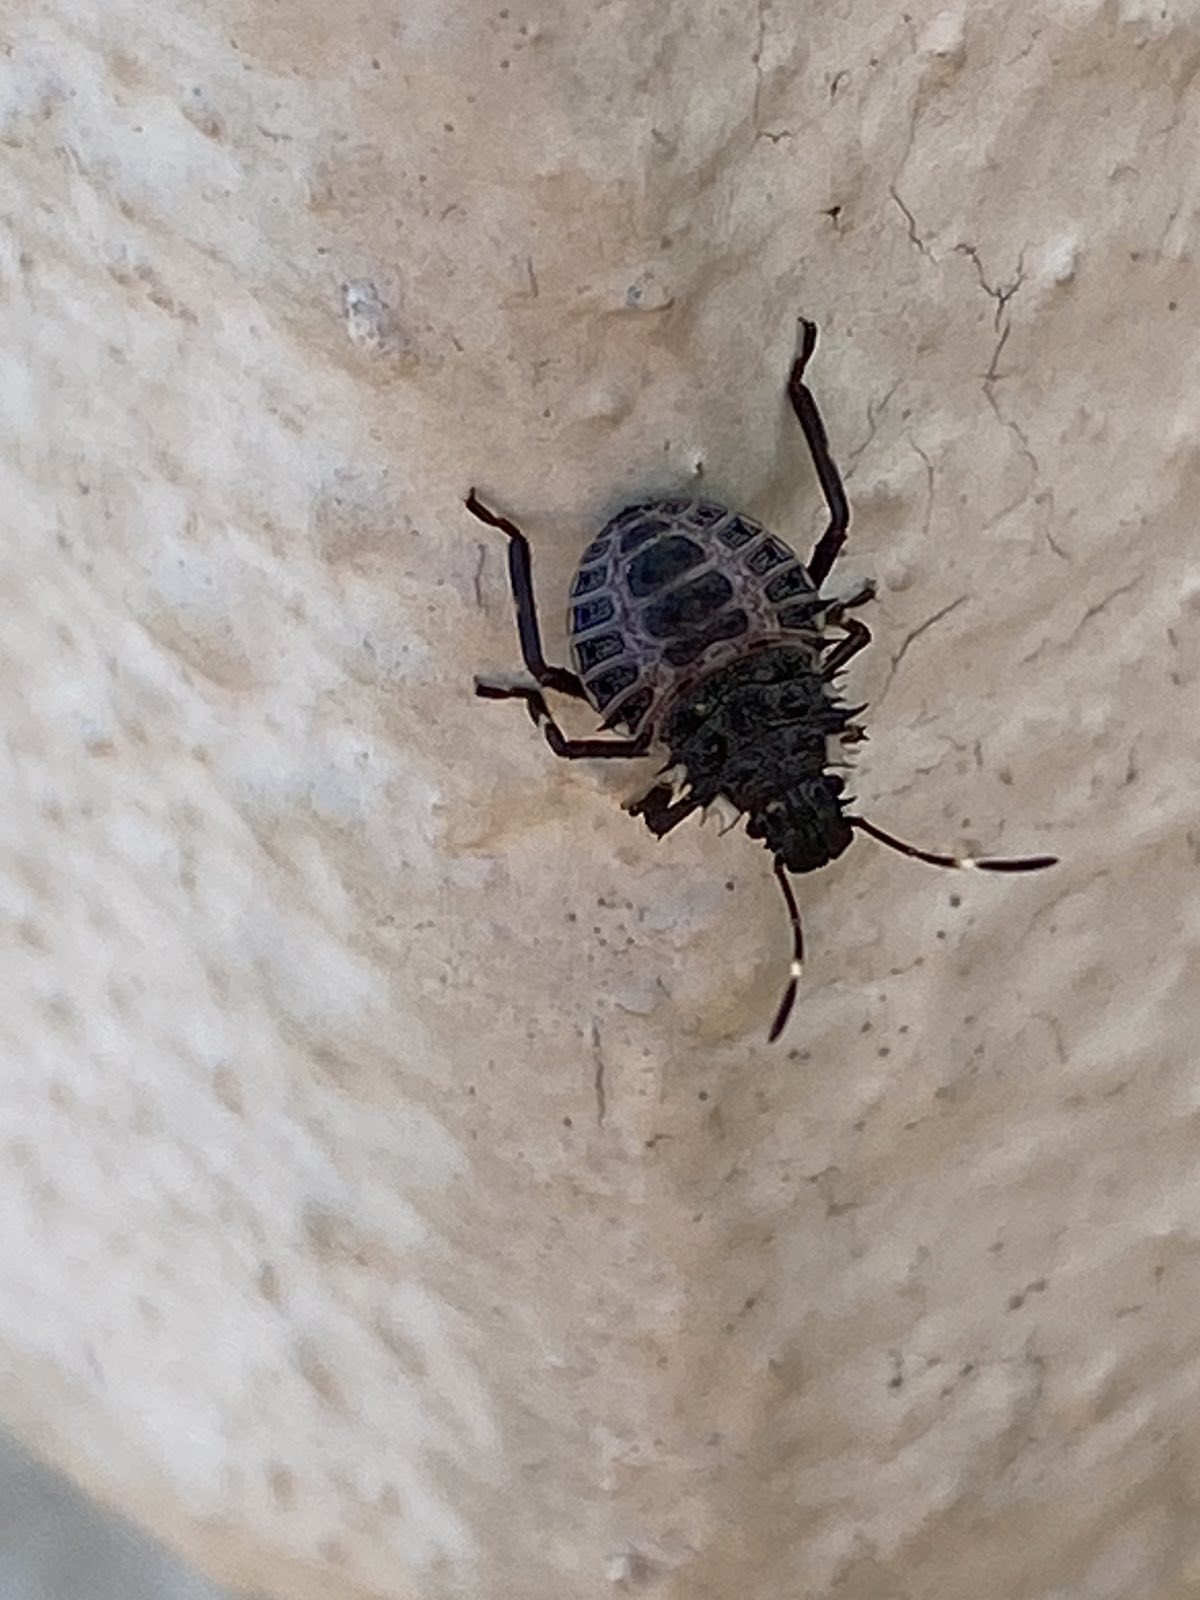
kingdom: Animalia
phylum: Arthropoda
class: Insecta
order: Hemiptera
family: Pentatomidae
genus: Halyomorpha
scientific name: Halyomorpha halys
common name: Brown marmorated stink bug
